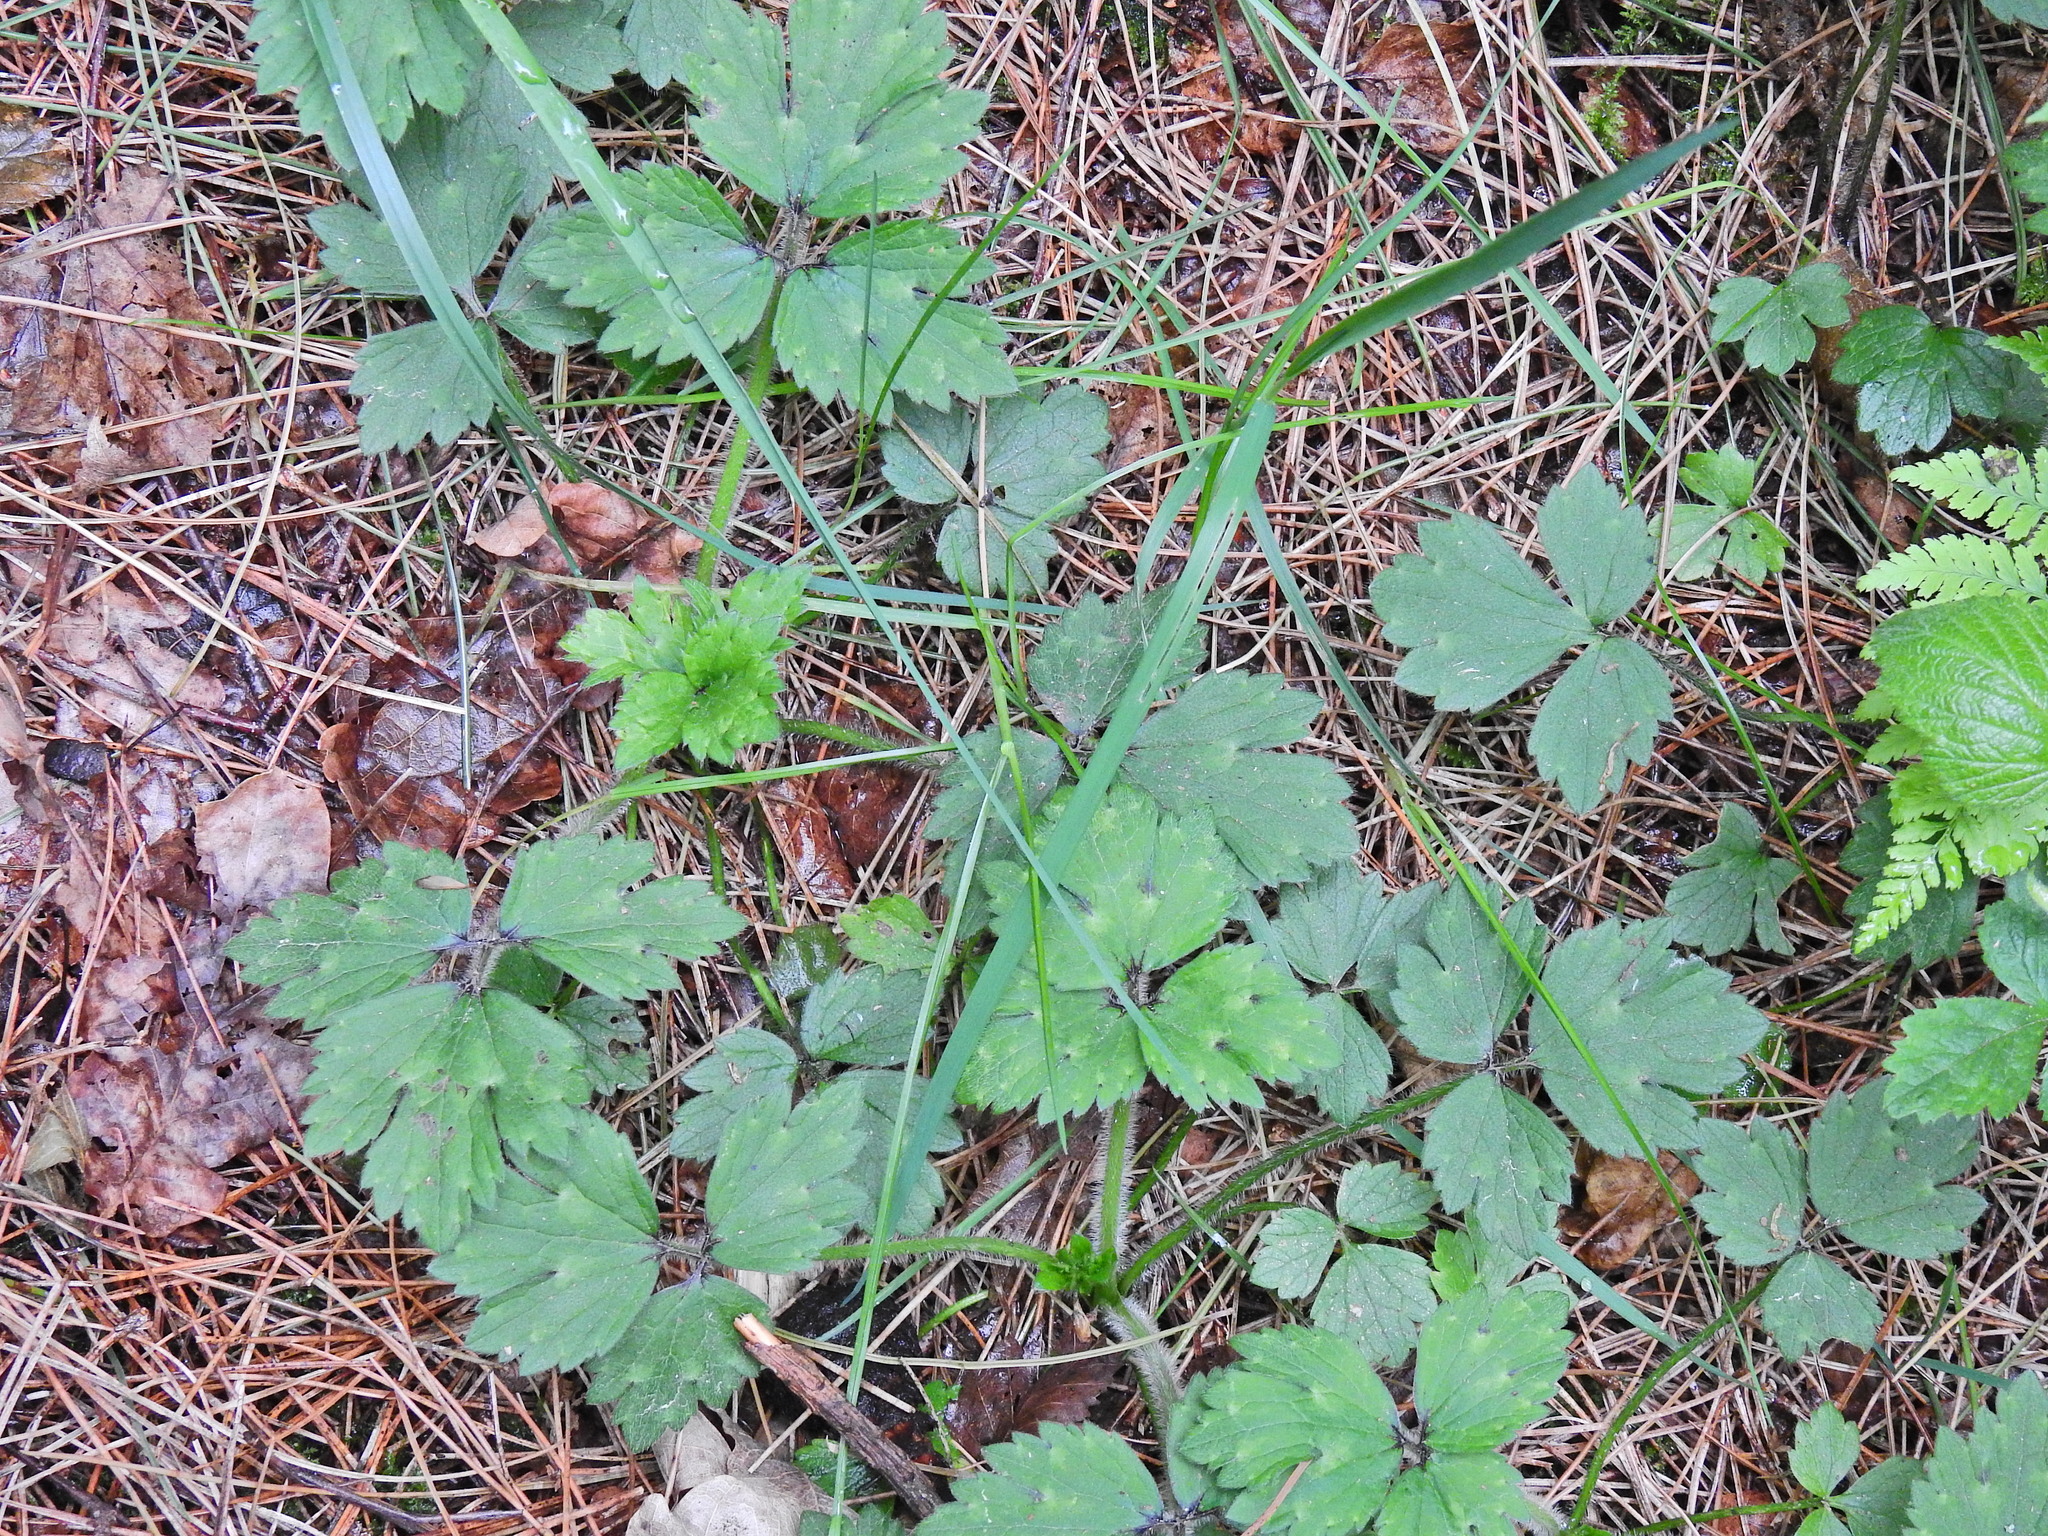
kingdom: Plantae
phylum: Tracheophyta
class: Magnoliopsida
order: Ranunculales
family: Ranunculaceae
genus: Ranunculus
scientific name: Ranunculus repens
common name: Creeping buttercup
